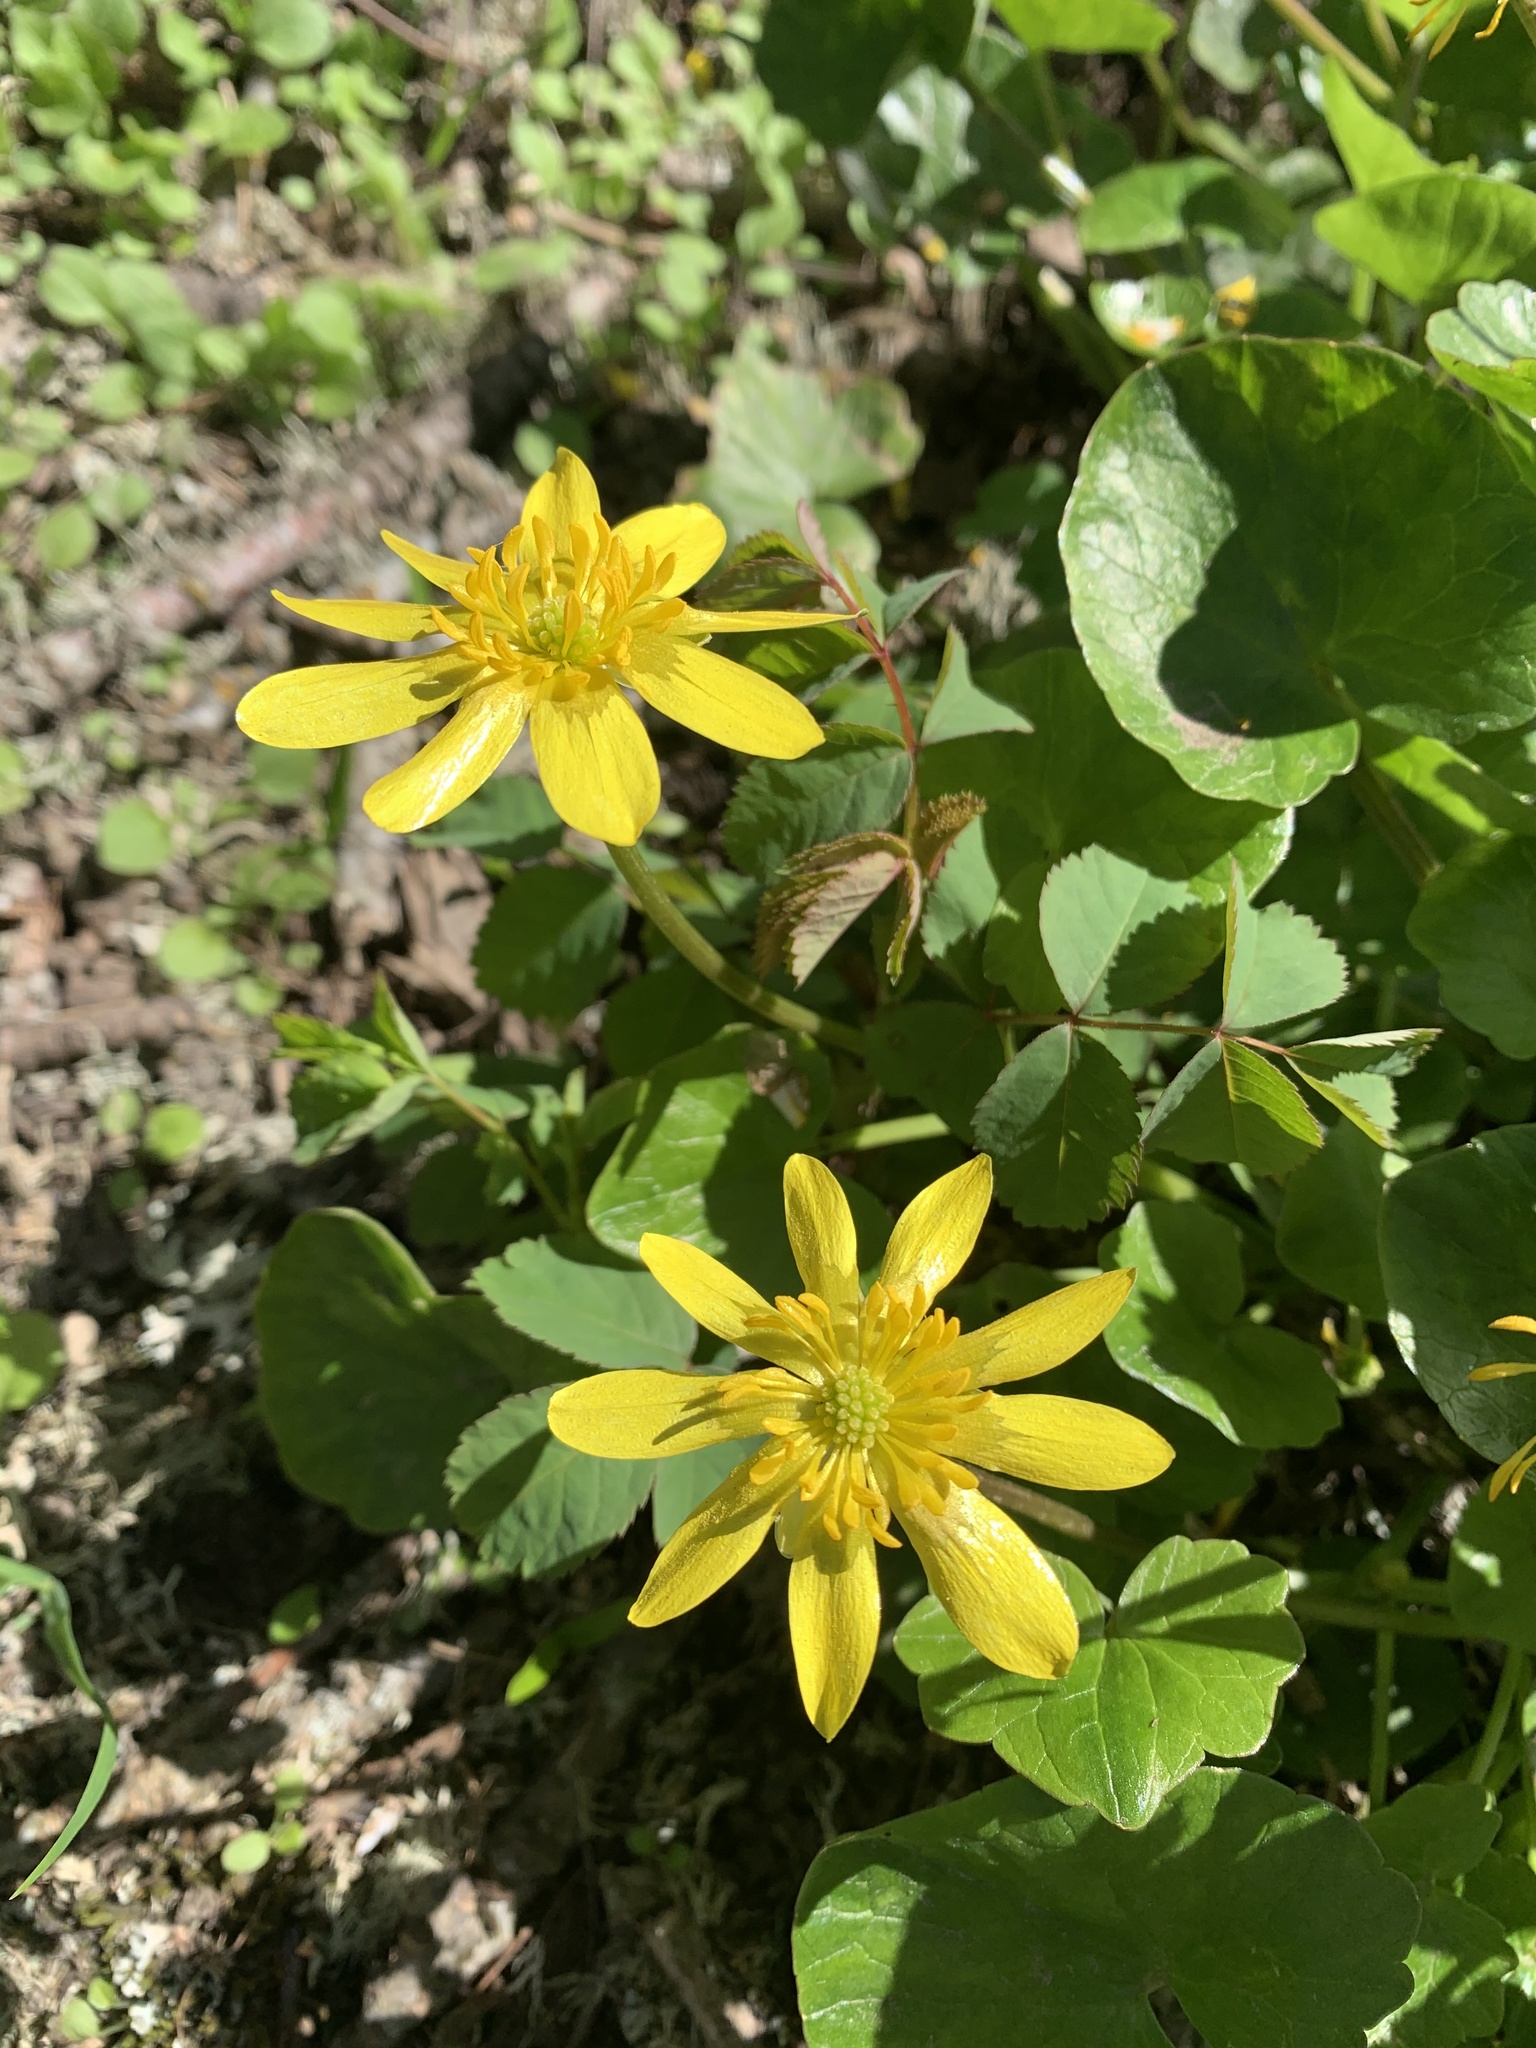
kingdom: Plantae
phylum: Tracheophyta
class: Magnoliopsida
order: Ranunculales
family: Ranunculaceae
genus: Ficaria
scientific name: Ficaria verna
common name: Lesser celandine
